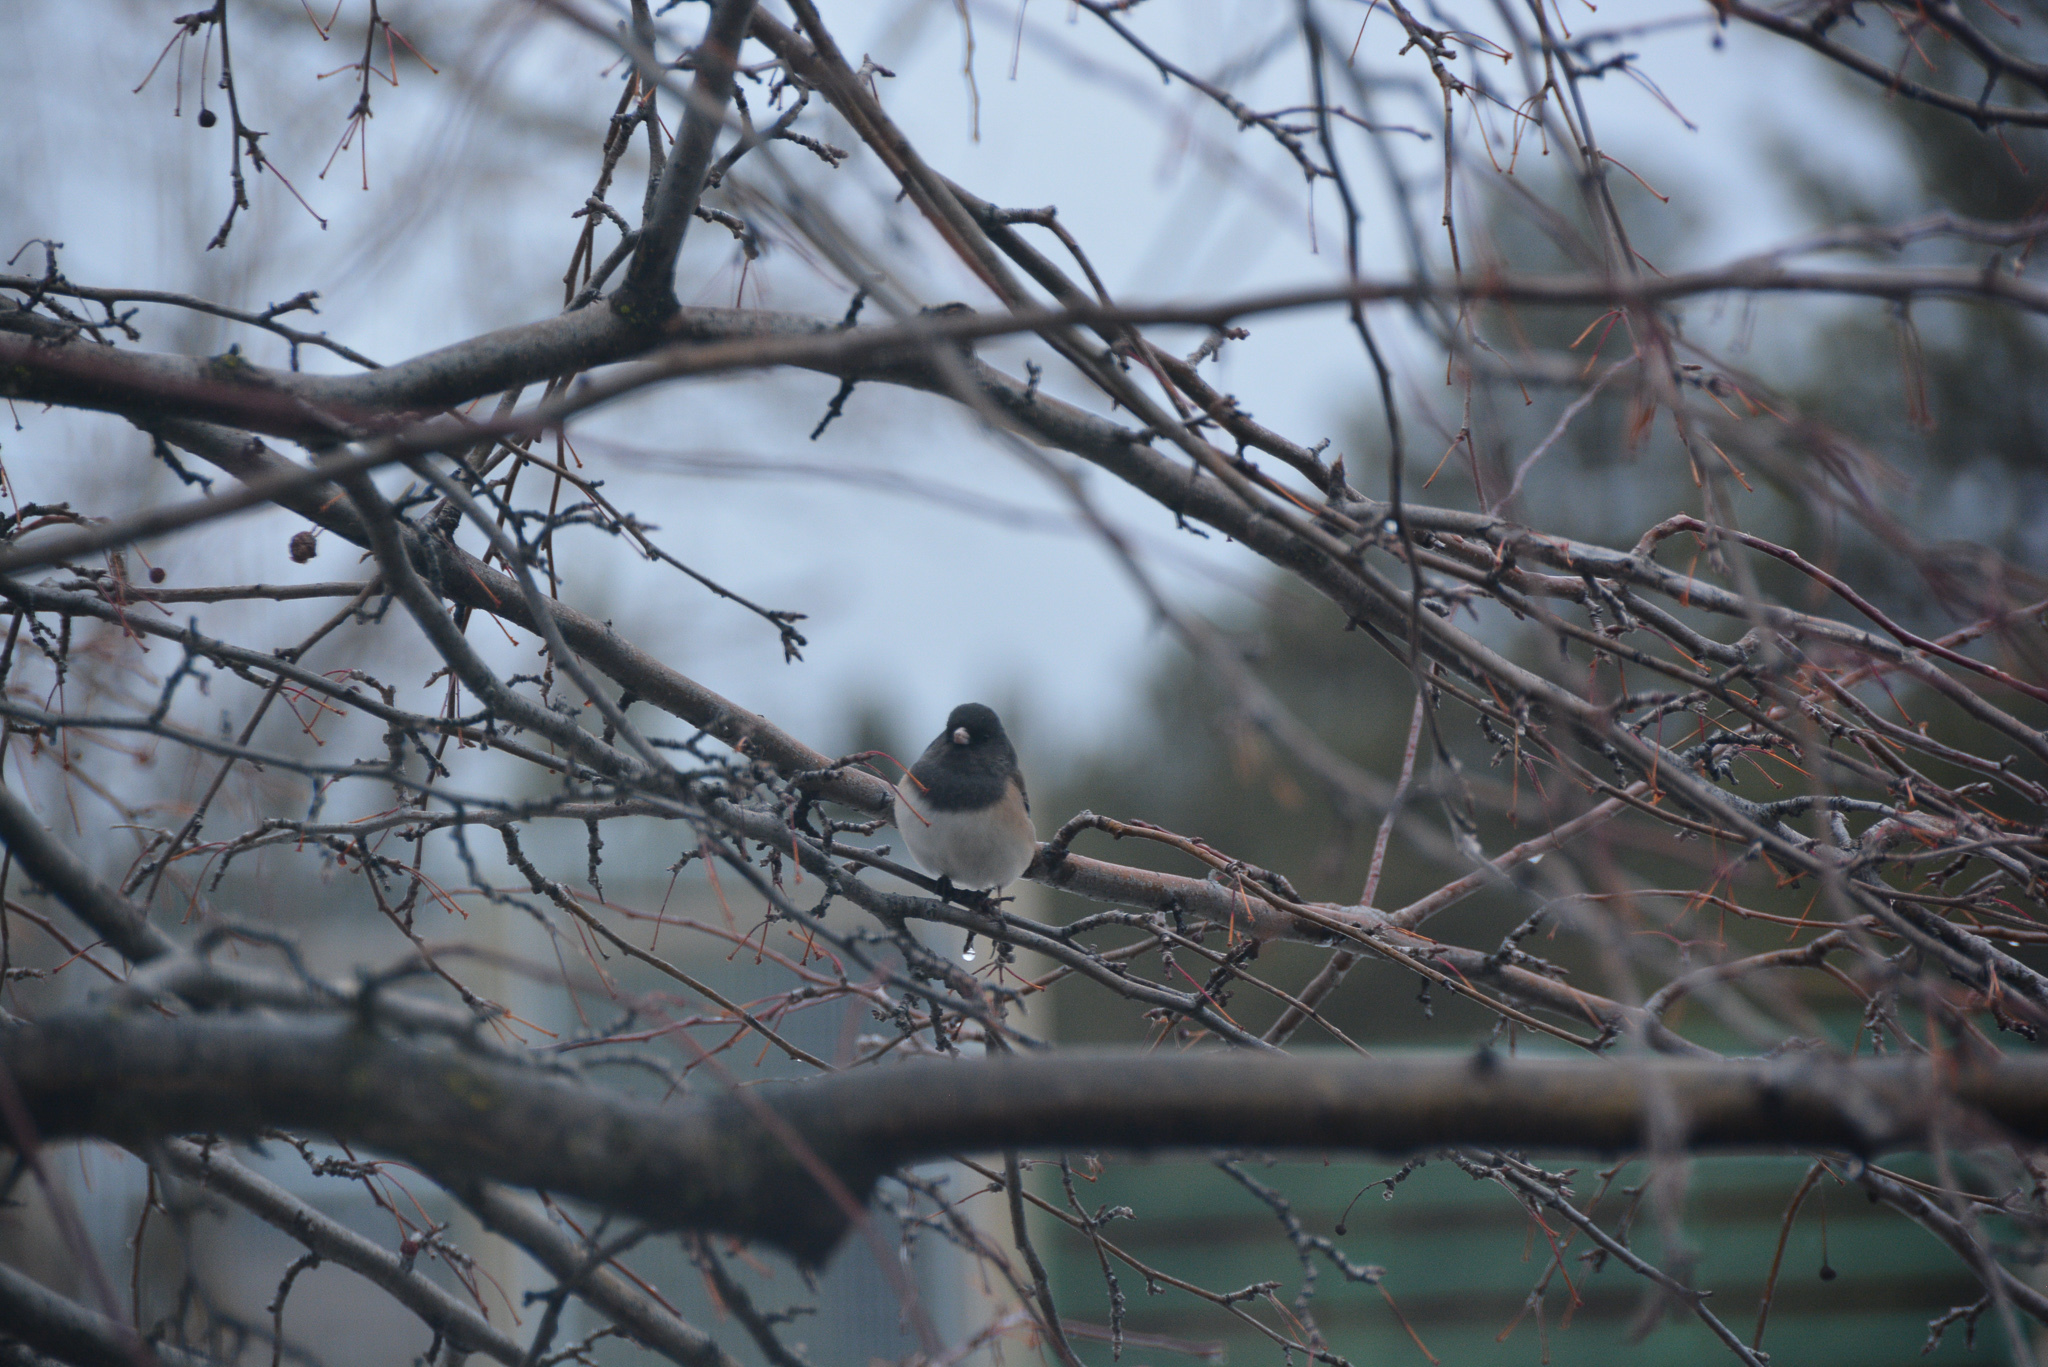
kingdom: Animalia
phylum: Chordata
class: Aves
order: Passeriformes
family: Passerellidae
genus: Junco
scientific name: Junco hyemalis
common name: Dark-eyed junco
